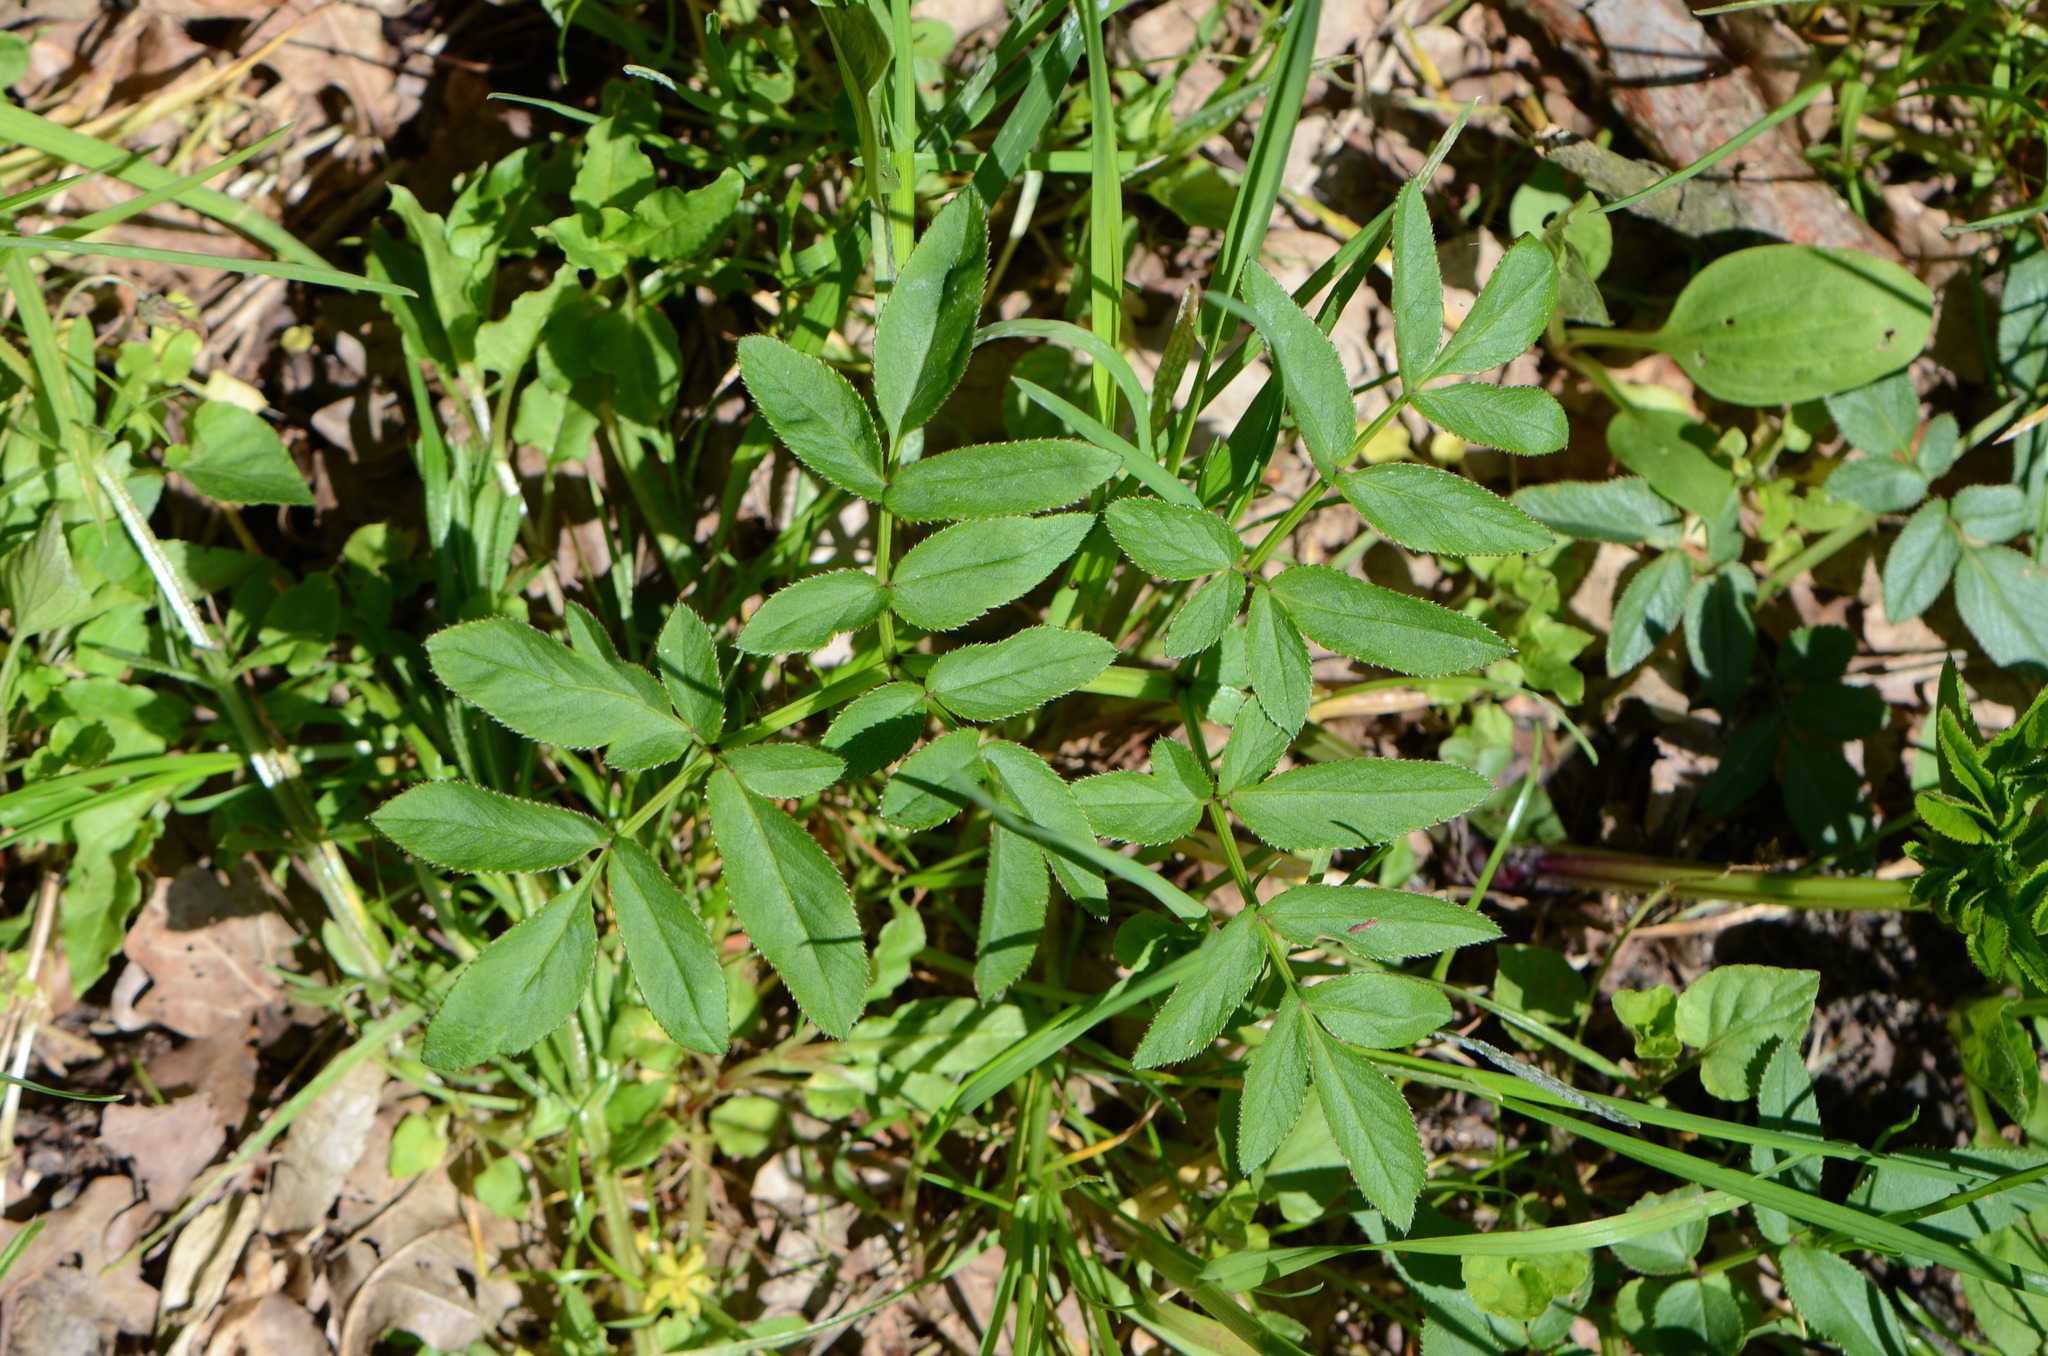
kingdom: Plantae
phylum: Tracheophyta
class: Magnoliopsida
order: Apiales
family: Apiaceae
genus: Angelica
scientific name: Angelica sylvestris
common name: Wild angelica
